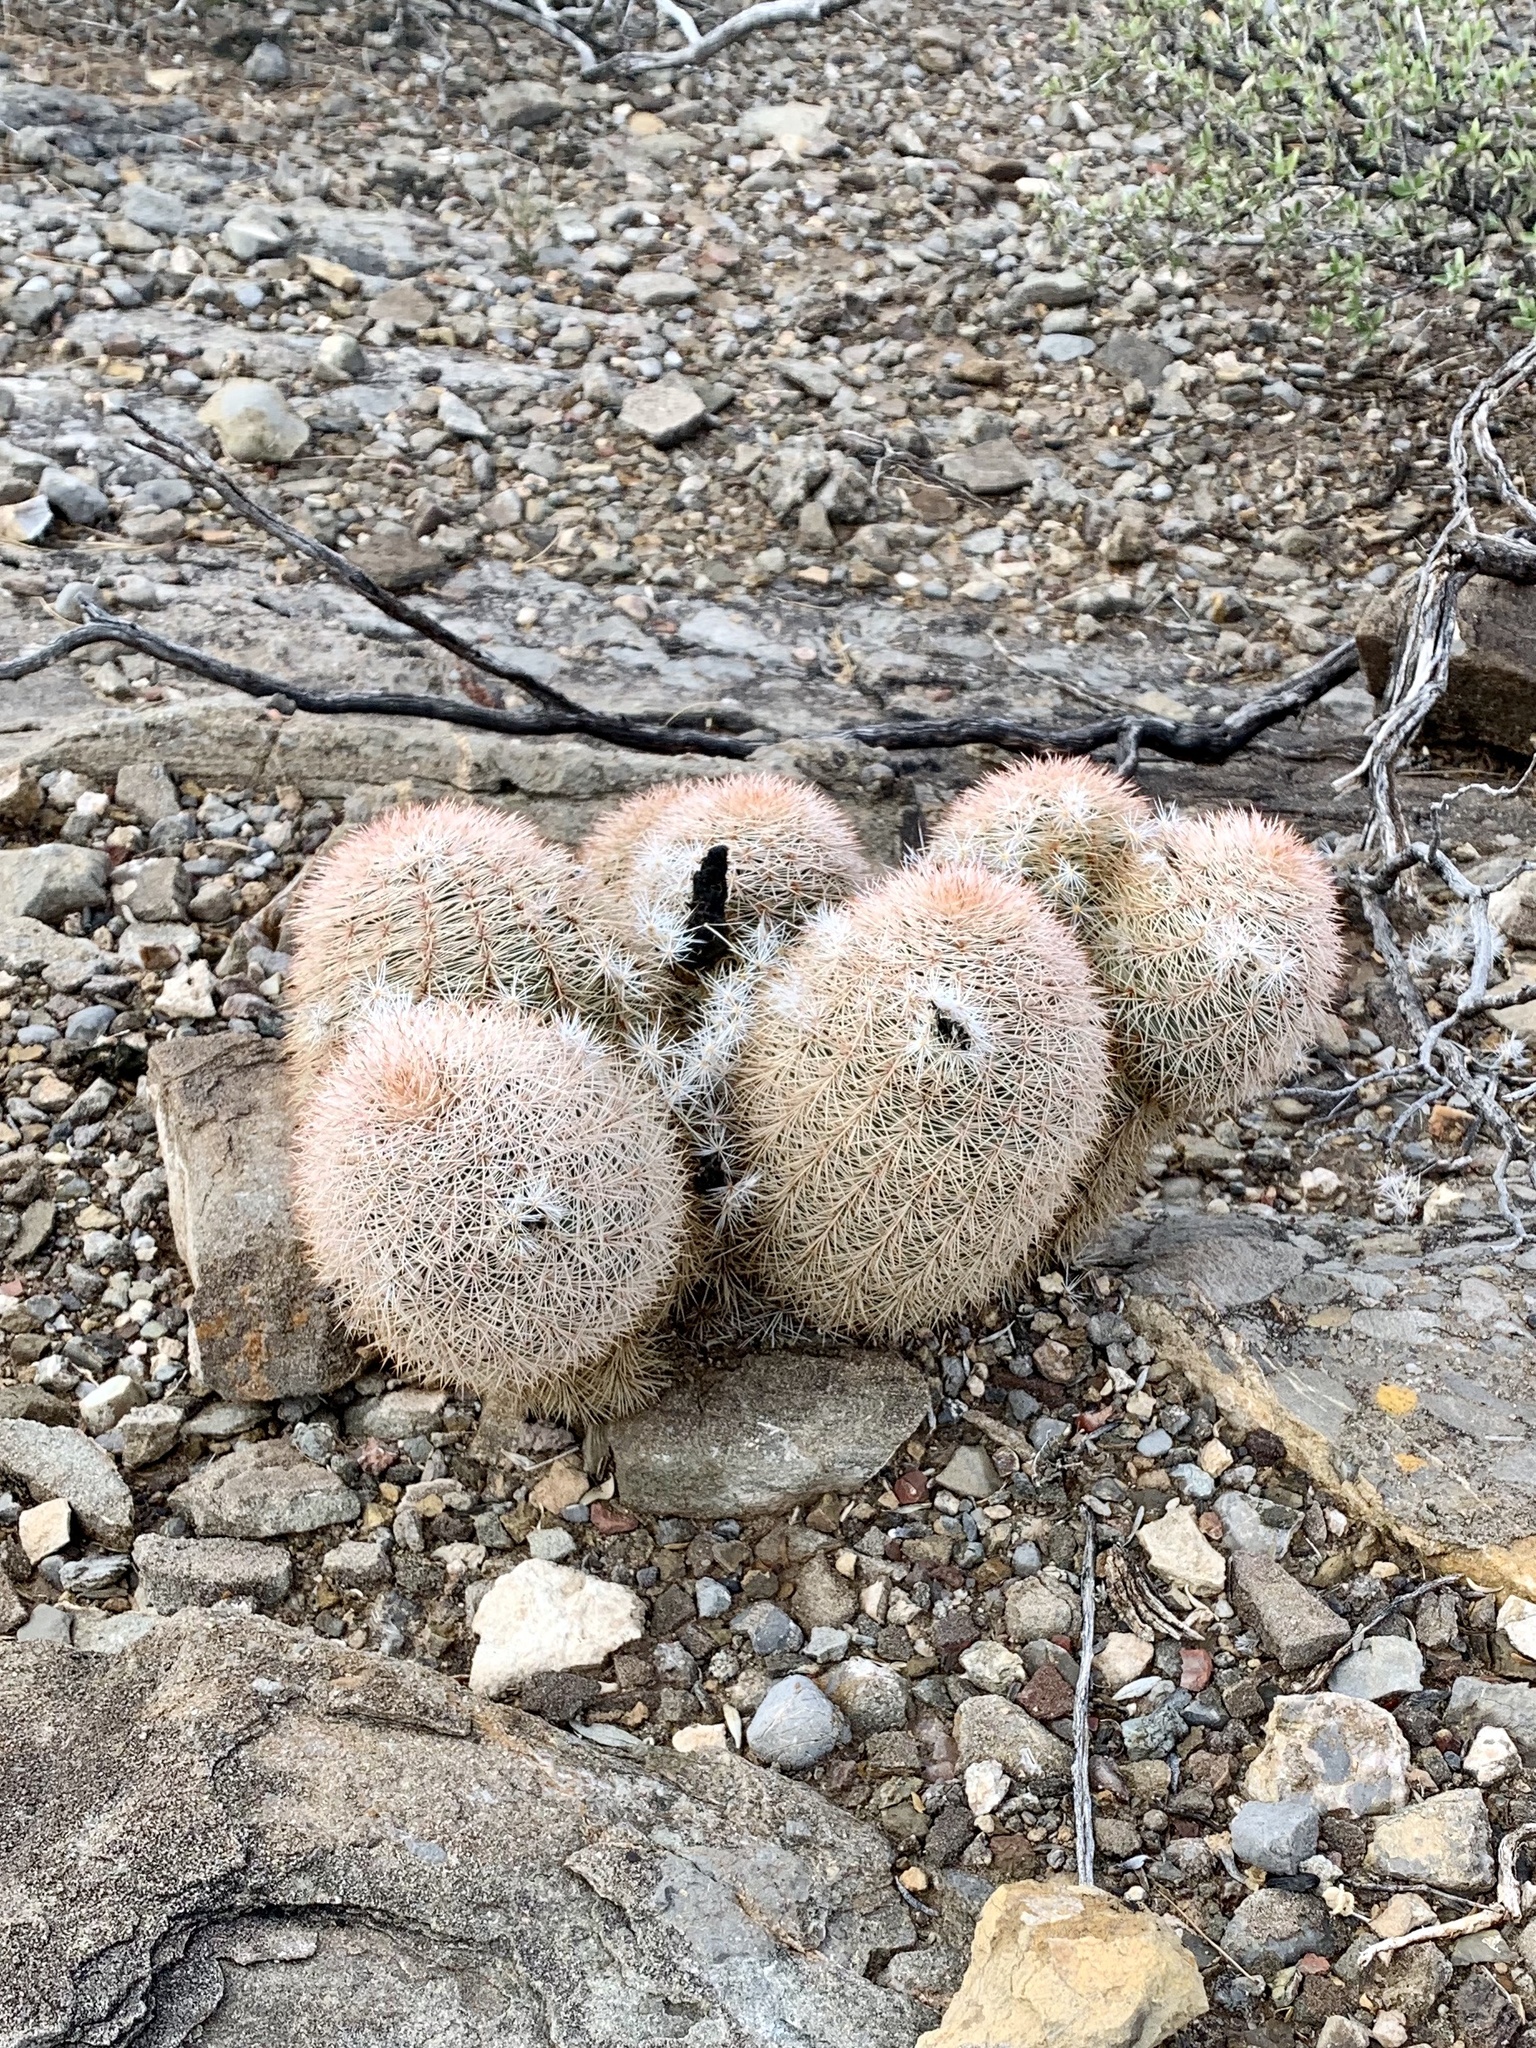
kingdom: Plantae
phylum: Tracheophyta
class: Magnoliopsida
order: Caryophyllales
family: Cactaceae
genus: Echinocereus
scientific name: Echinocereus dasyacanthus
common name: Spiny hedgehog cactus
